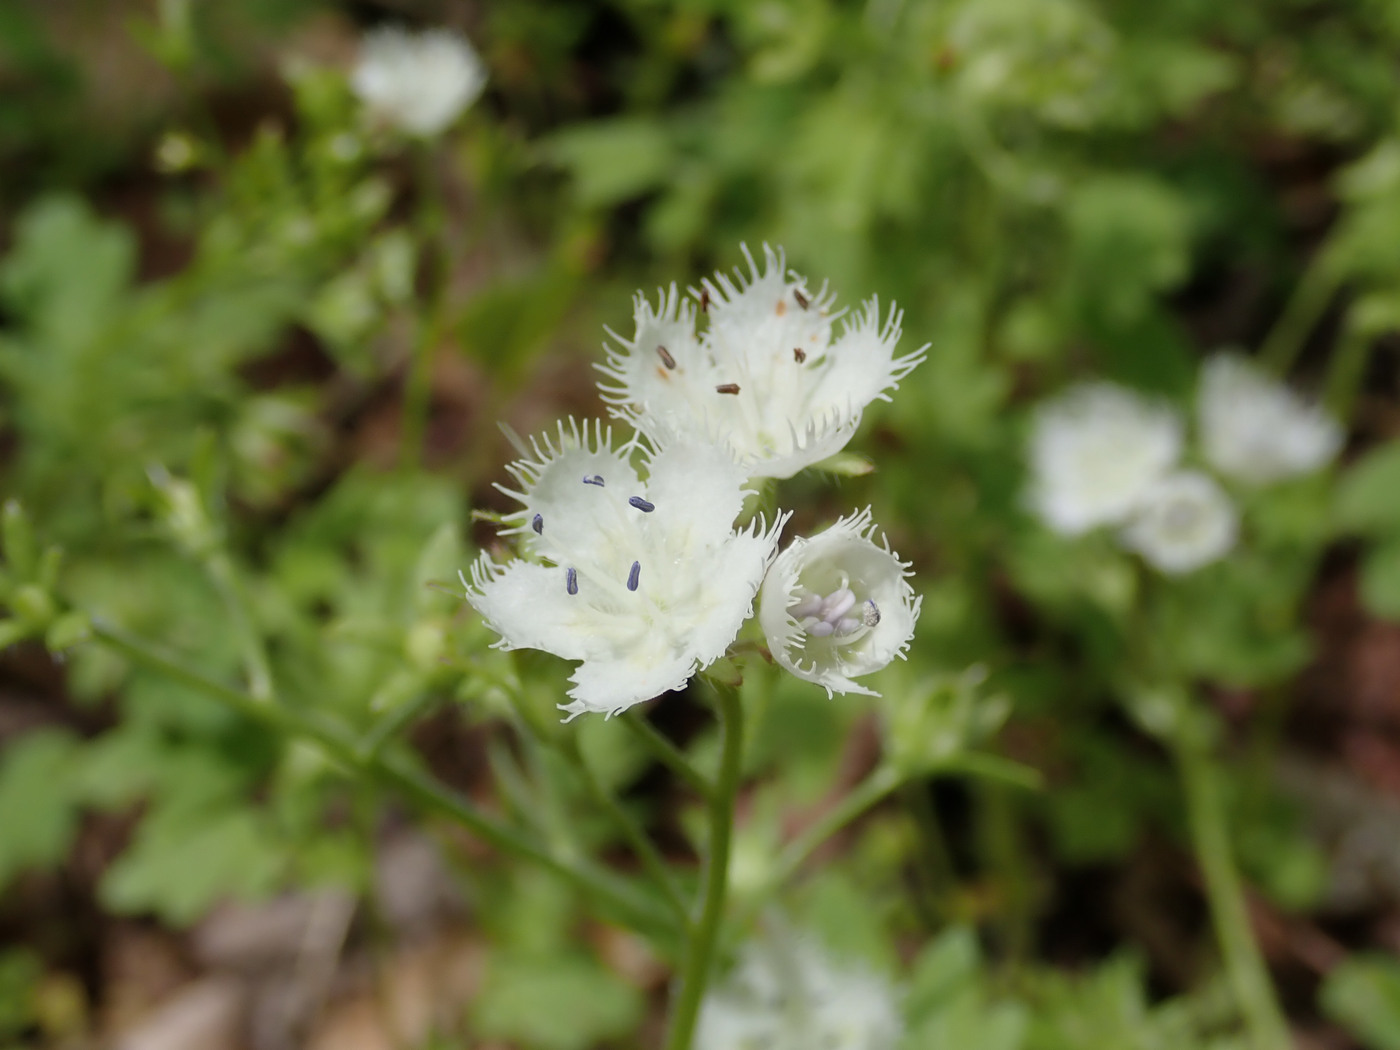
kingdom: Plantae
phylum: Tracheophyta
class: Magnoliopsida
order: Boraginales
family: Hydrophyllaceae
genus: Phacelia
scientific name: Phacelia fimbriata
